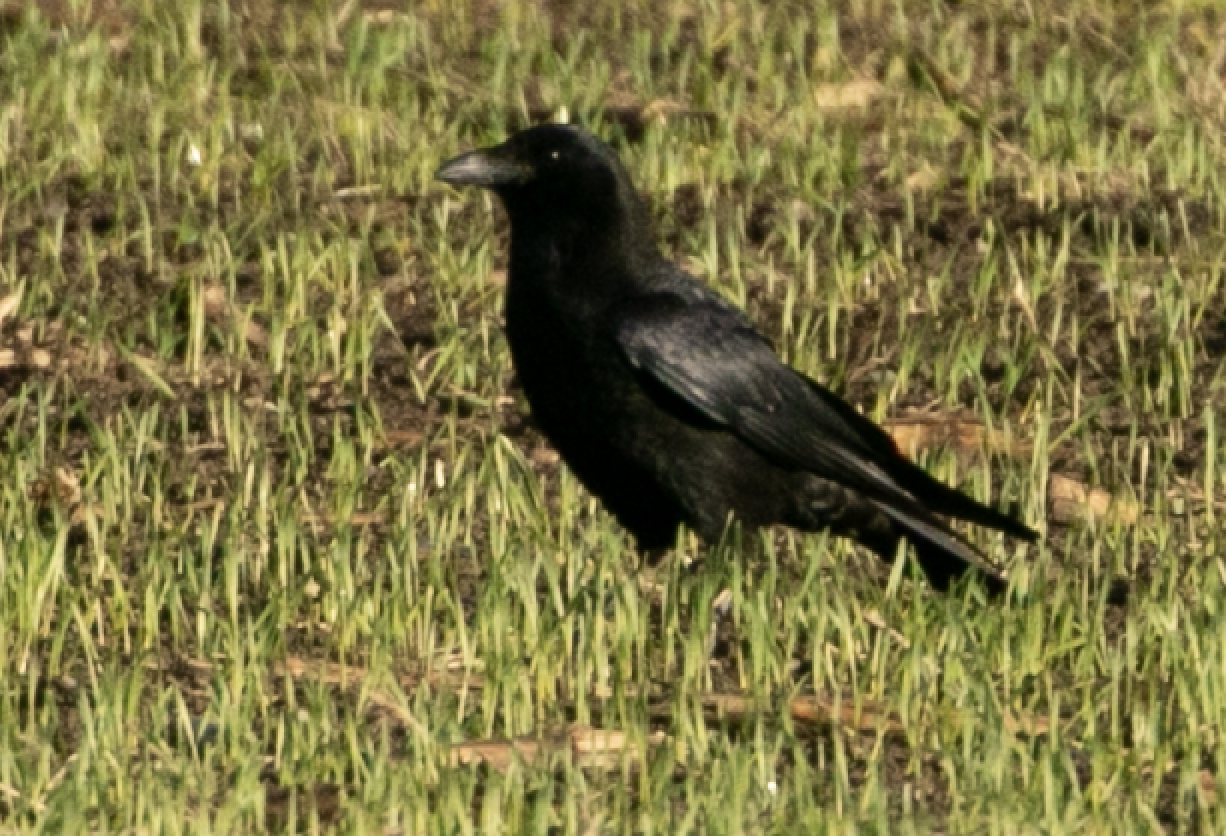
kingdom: Animalia
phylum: Chordata
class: Aves
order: Passeriformes
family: Corvidae
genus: Corvus
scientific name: Corvus corone
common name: Carrion crow
